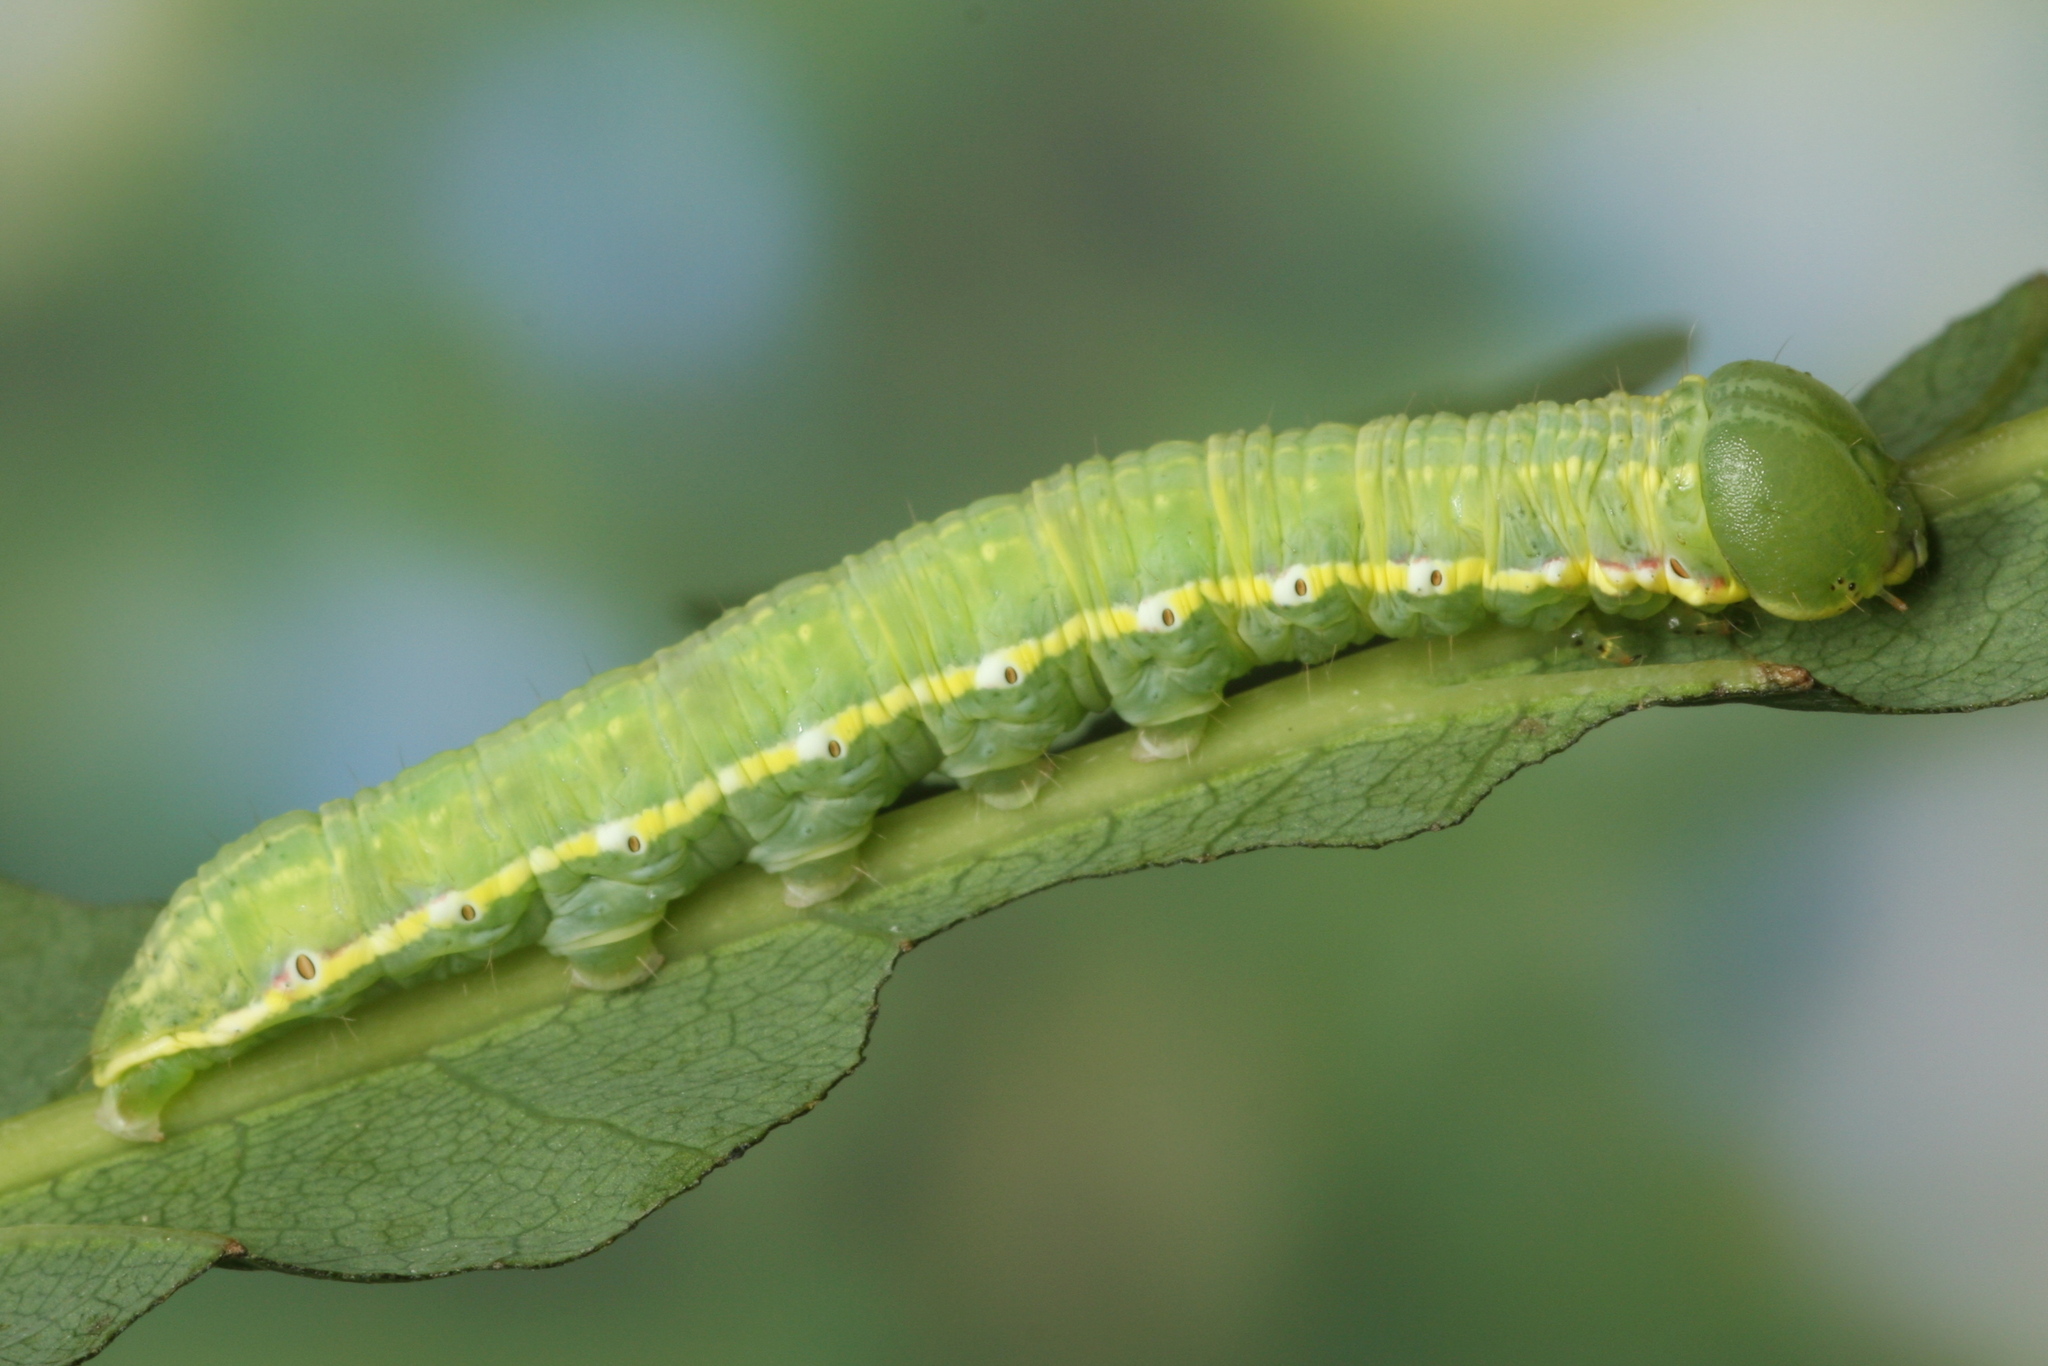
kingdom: Animalia
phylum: Arthropoda
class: Insecta
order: Lepidoptera
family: Notodontidae
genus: Drymonia
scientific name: Drymonia dodonaea
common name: Marbled brown
